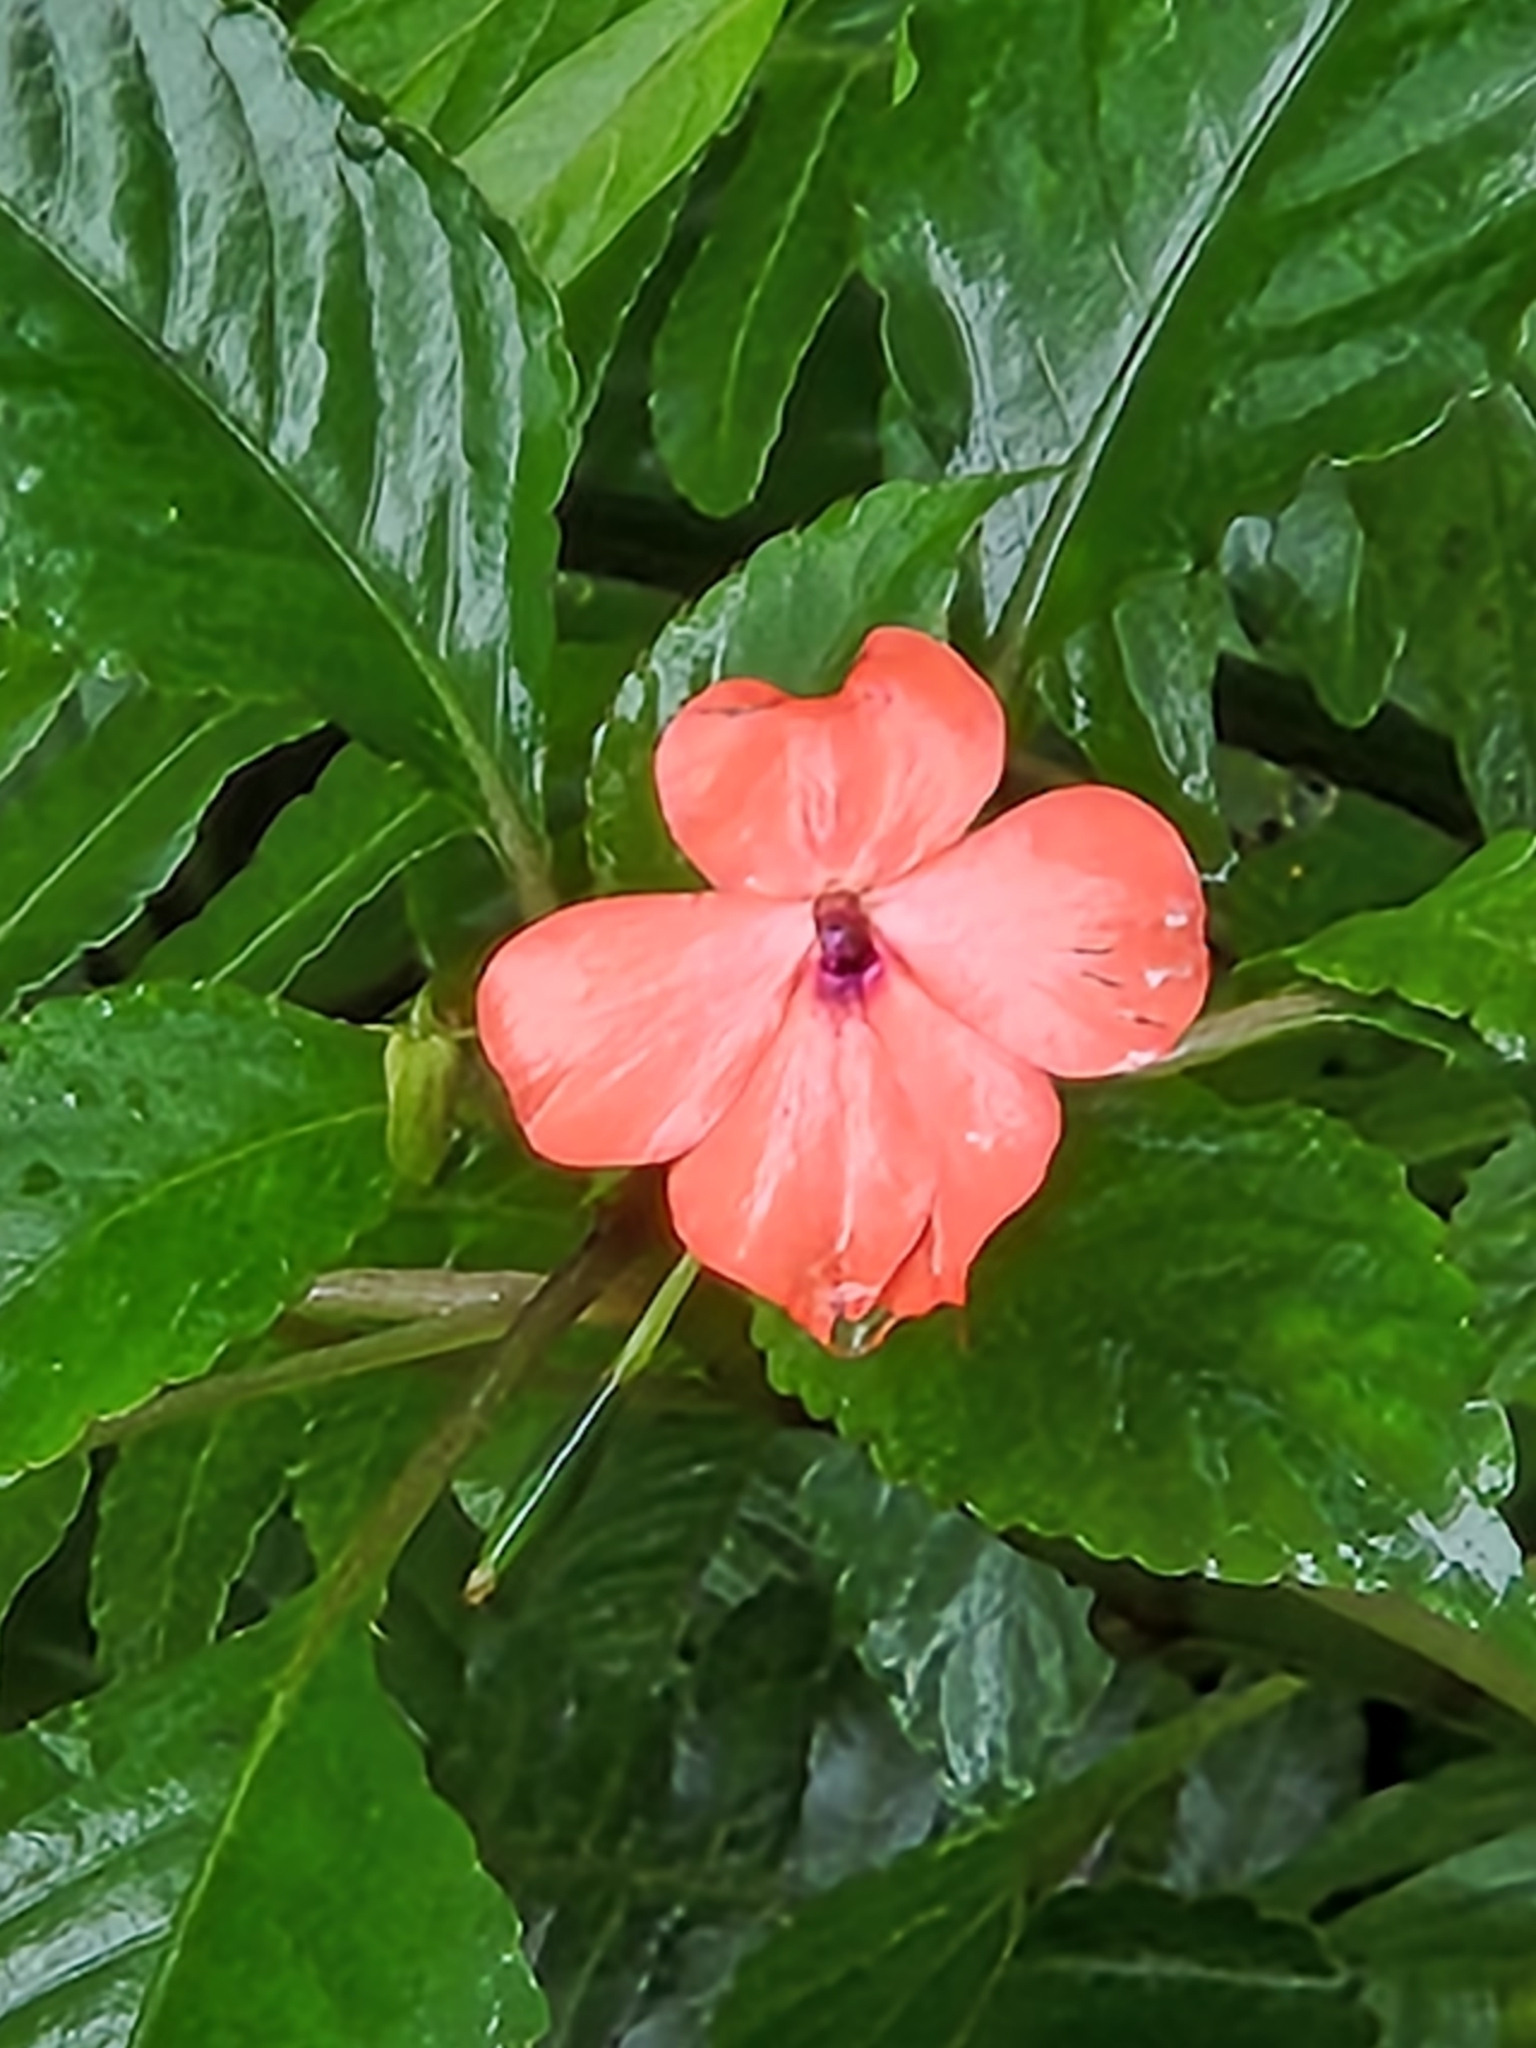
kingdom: Plantae
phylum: Tracheophyta
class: Magnoliopsida
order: Ericales
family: Balsaminaceae
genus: Impatiens
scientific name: Impatiens walleriana
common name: Buzzy lizzy
